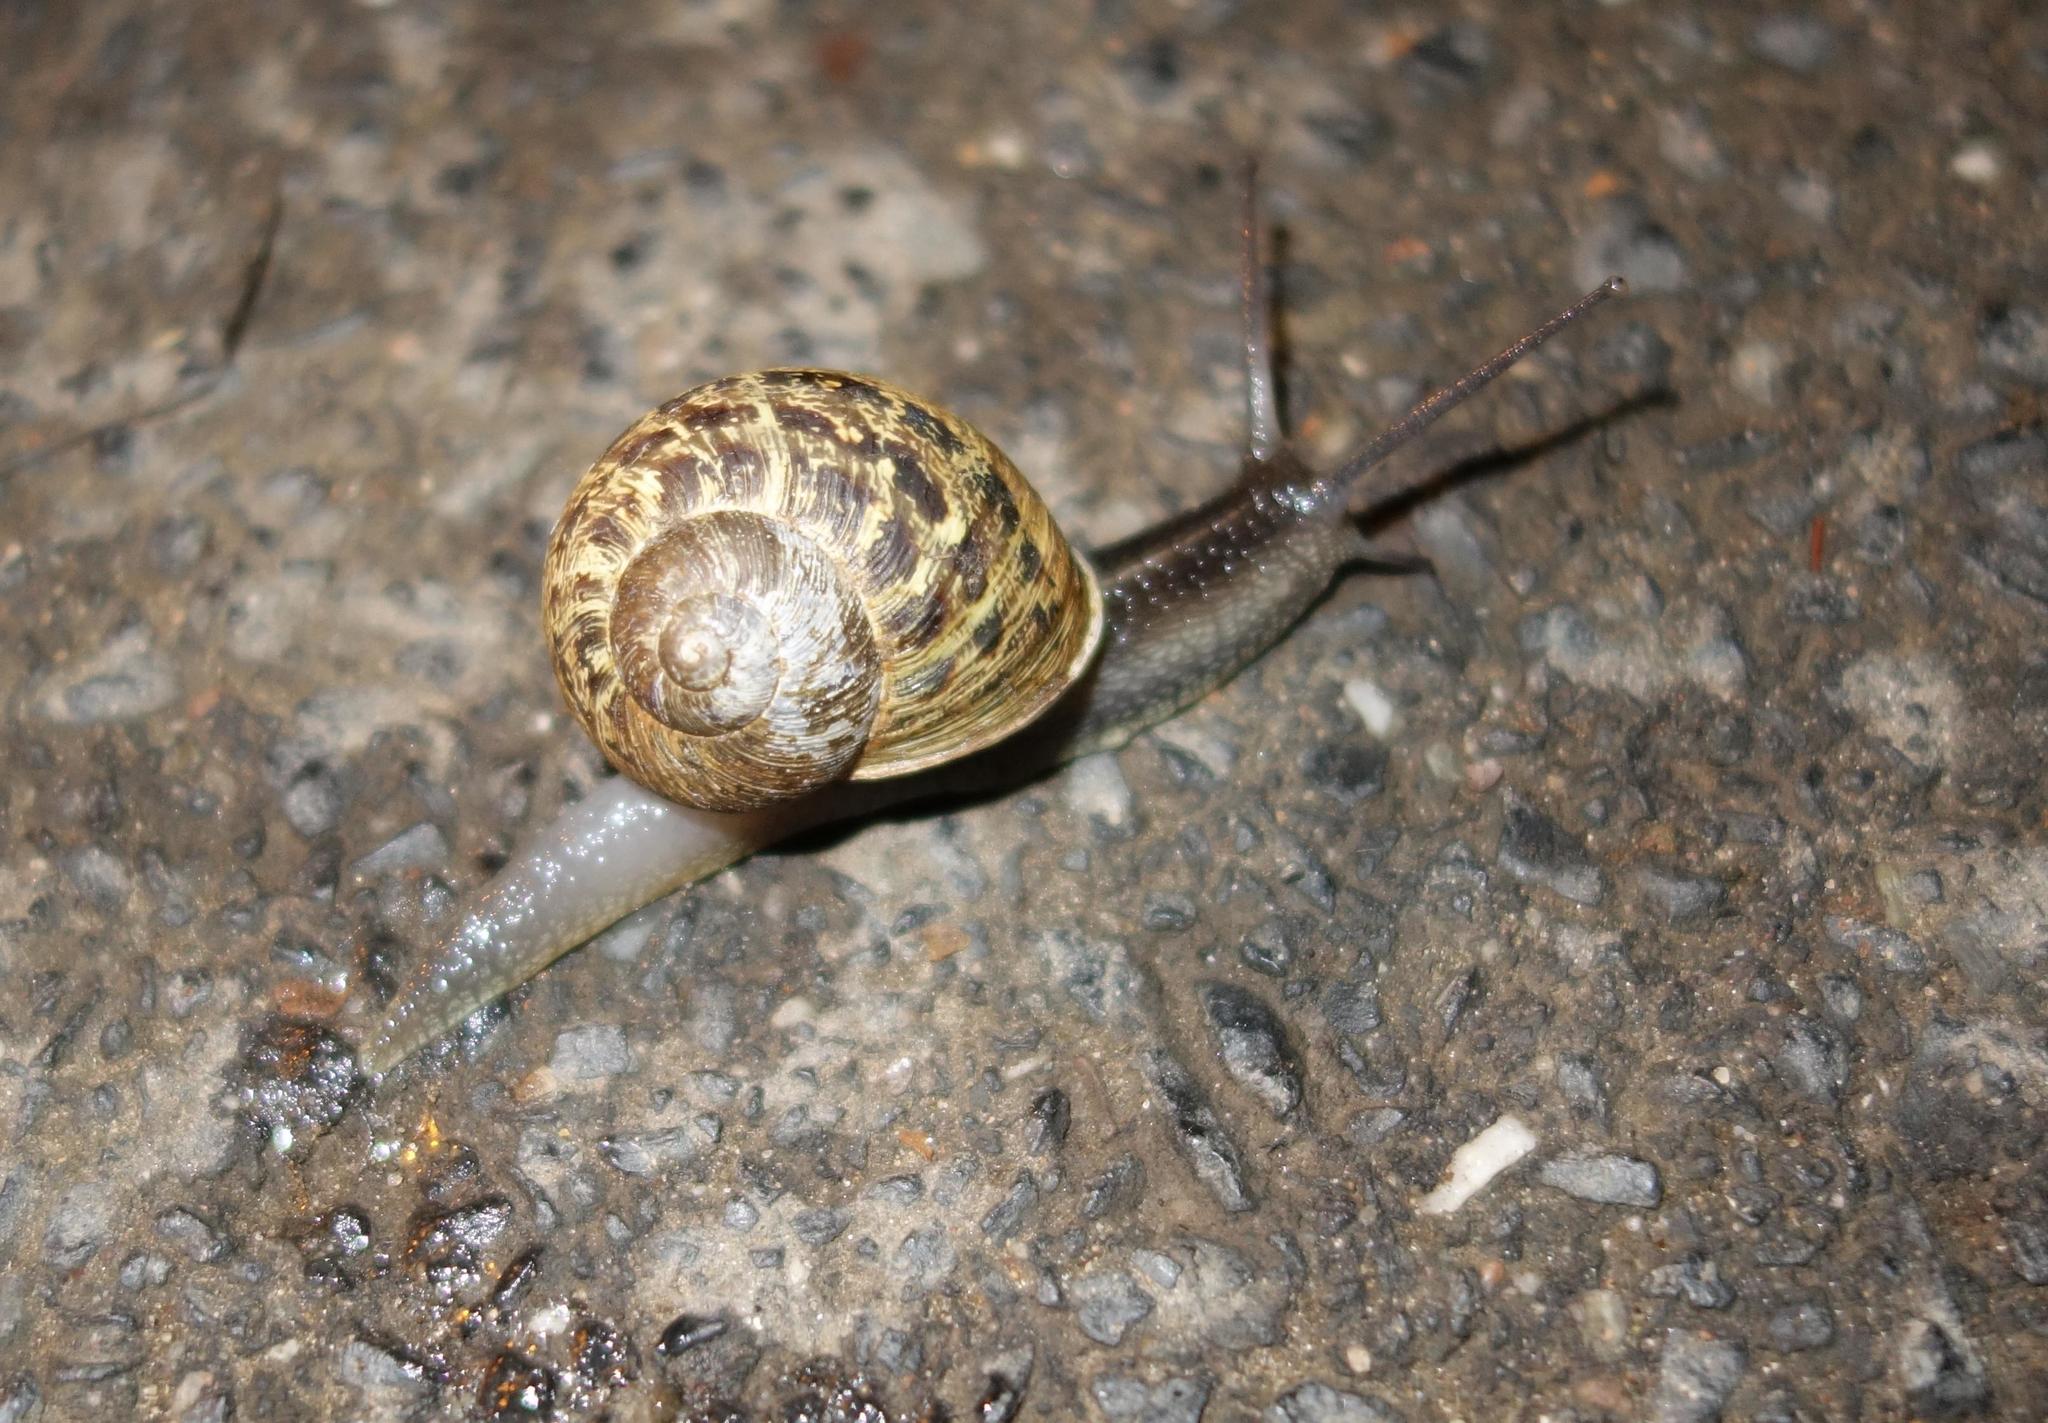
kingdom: Animalia
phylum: Mollusca
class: Gastropoda
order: Stylommatophora
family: Helicidae
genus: Cornu
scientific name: Cornu aspersum
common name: Brown garden snail
